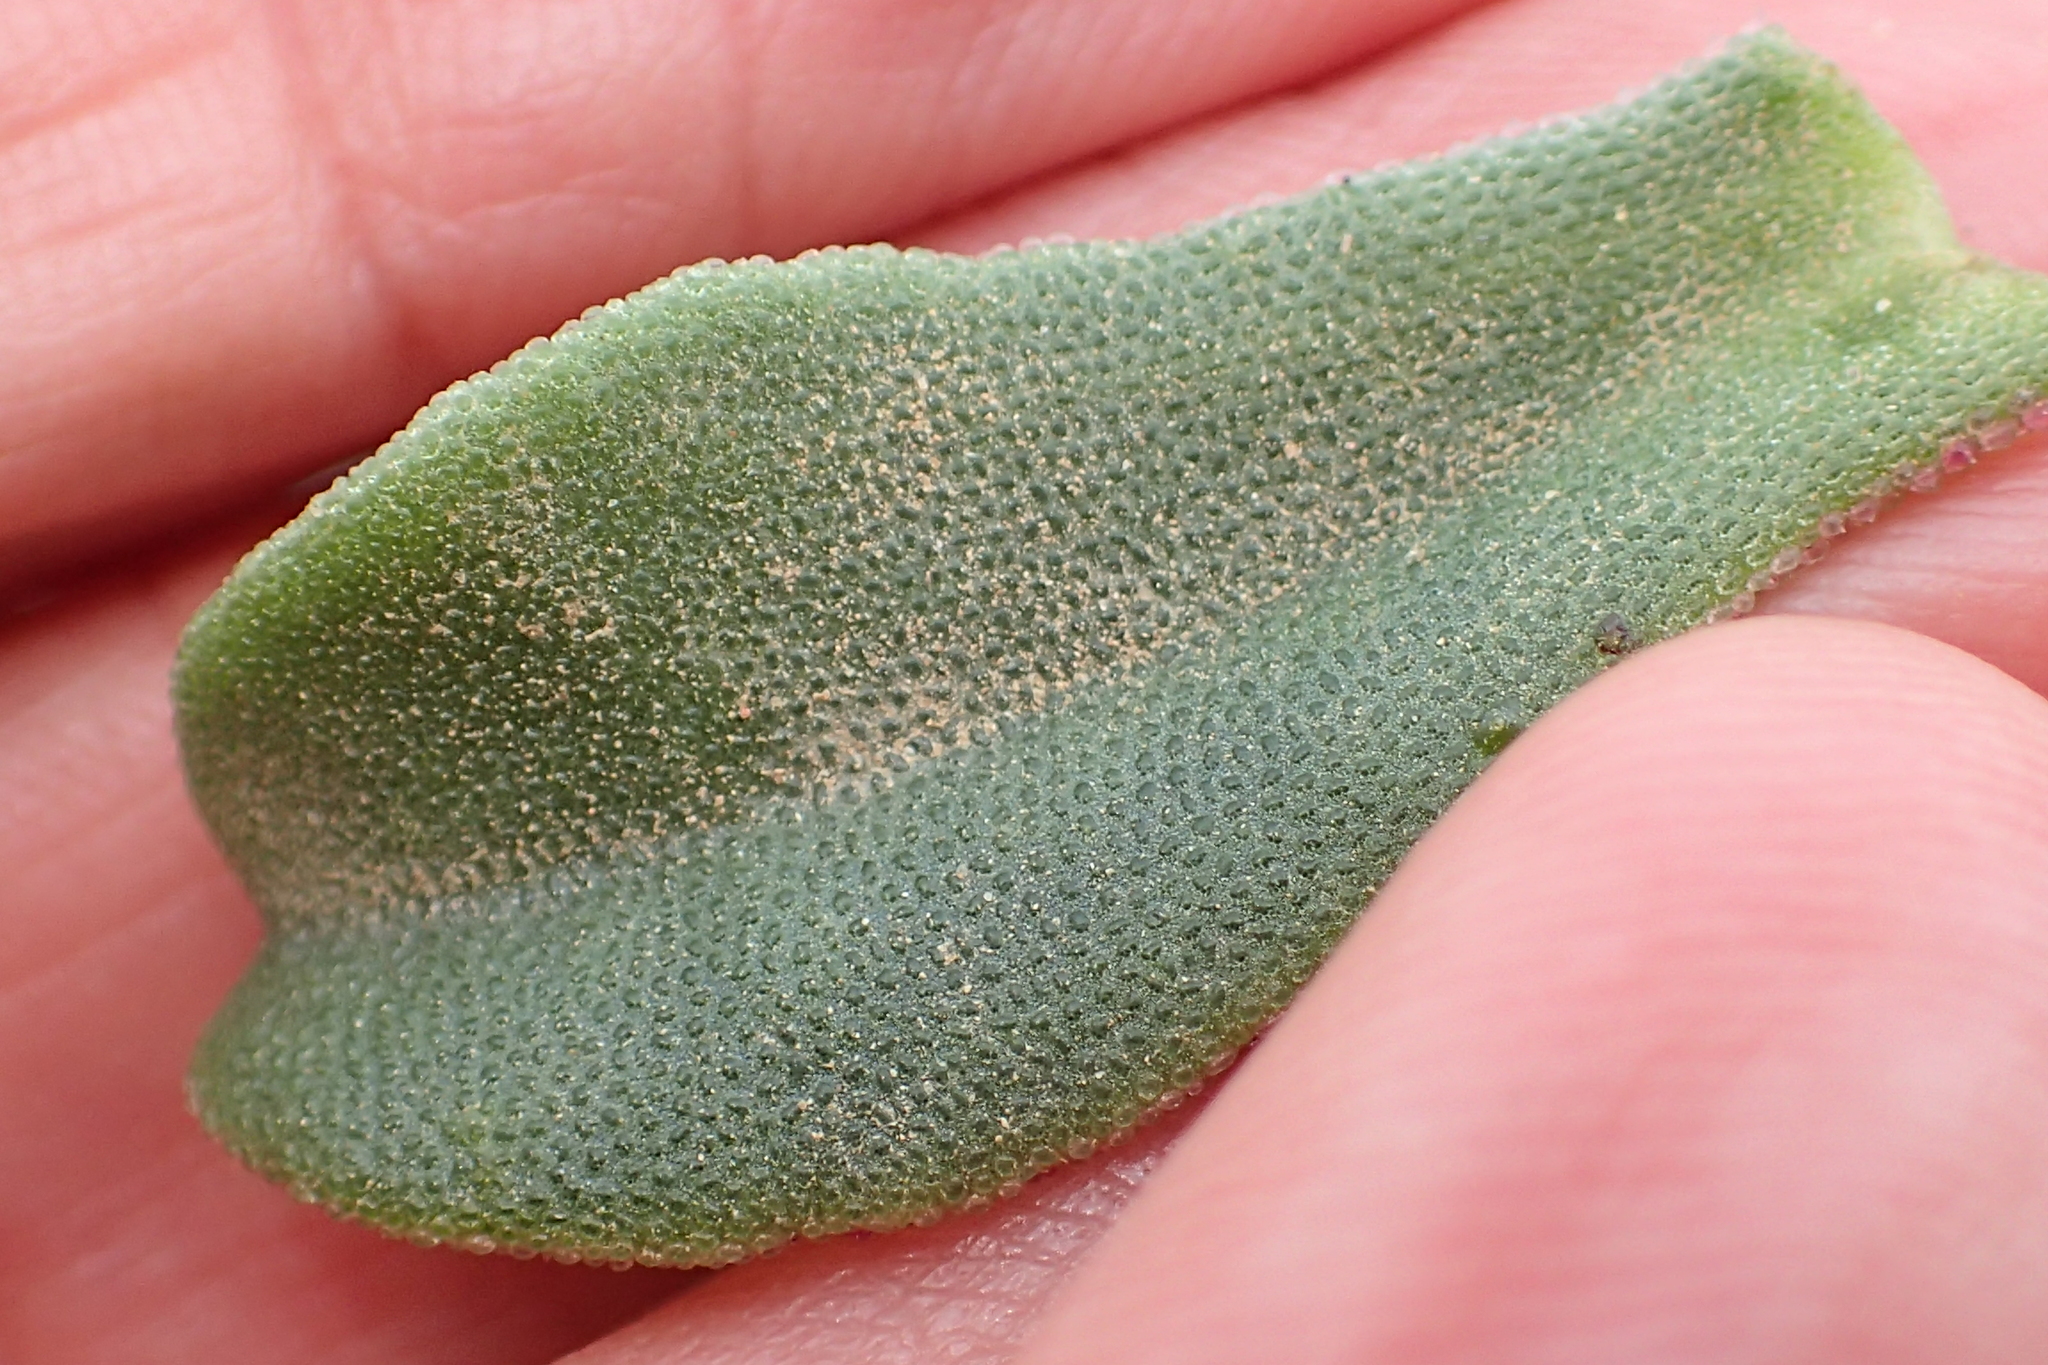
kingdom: Plantae
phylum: Tracheophyta
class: Magnoliopsida
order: Caryophyllales
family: Aizoaceae
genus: Mesembryanthemum
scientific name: Mesembryanthemum aitonis
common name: Angled iceplant
